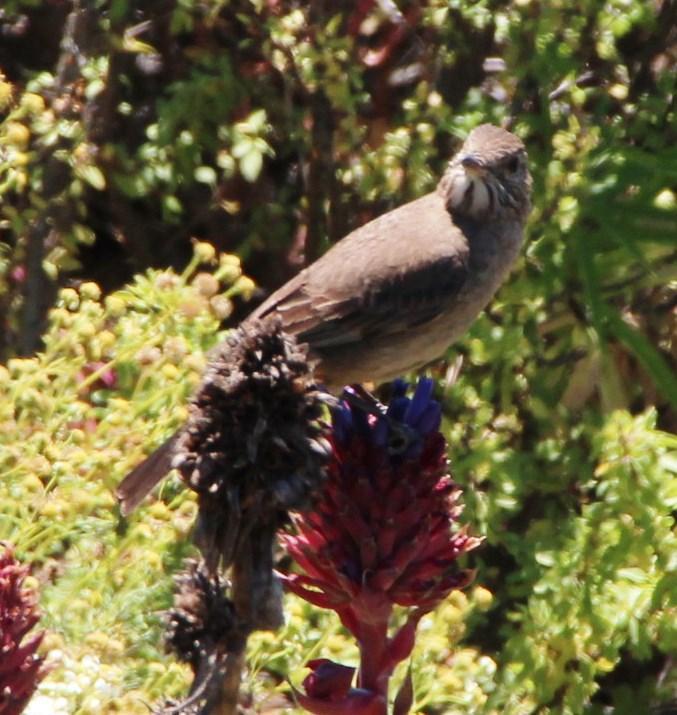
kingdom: Animalia
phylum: Chordata
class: Aves
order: Passeriformes
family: Tyrannidae
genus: Agriornis
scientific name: Agriornis lividus
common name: Great shrike-tyrant
